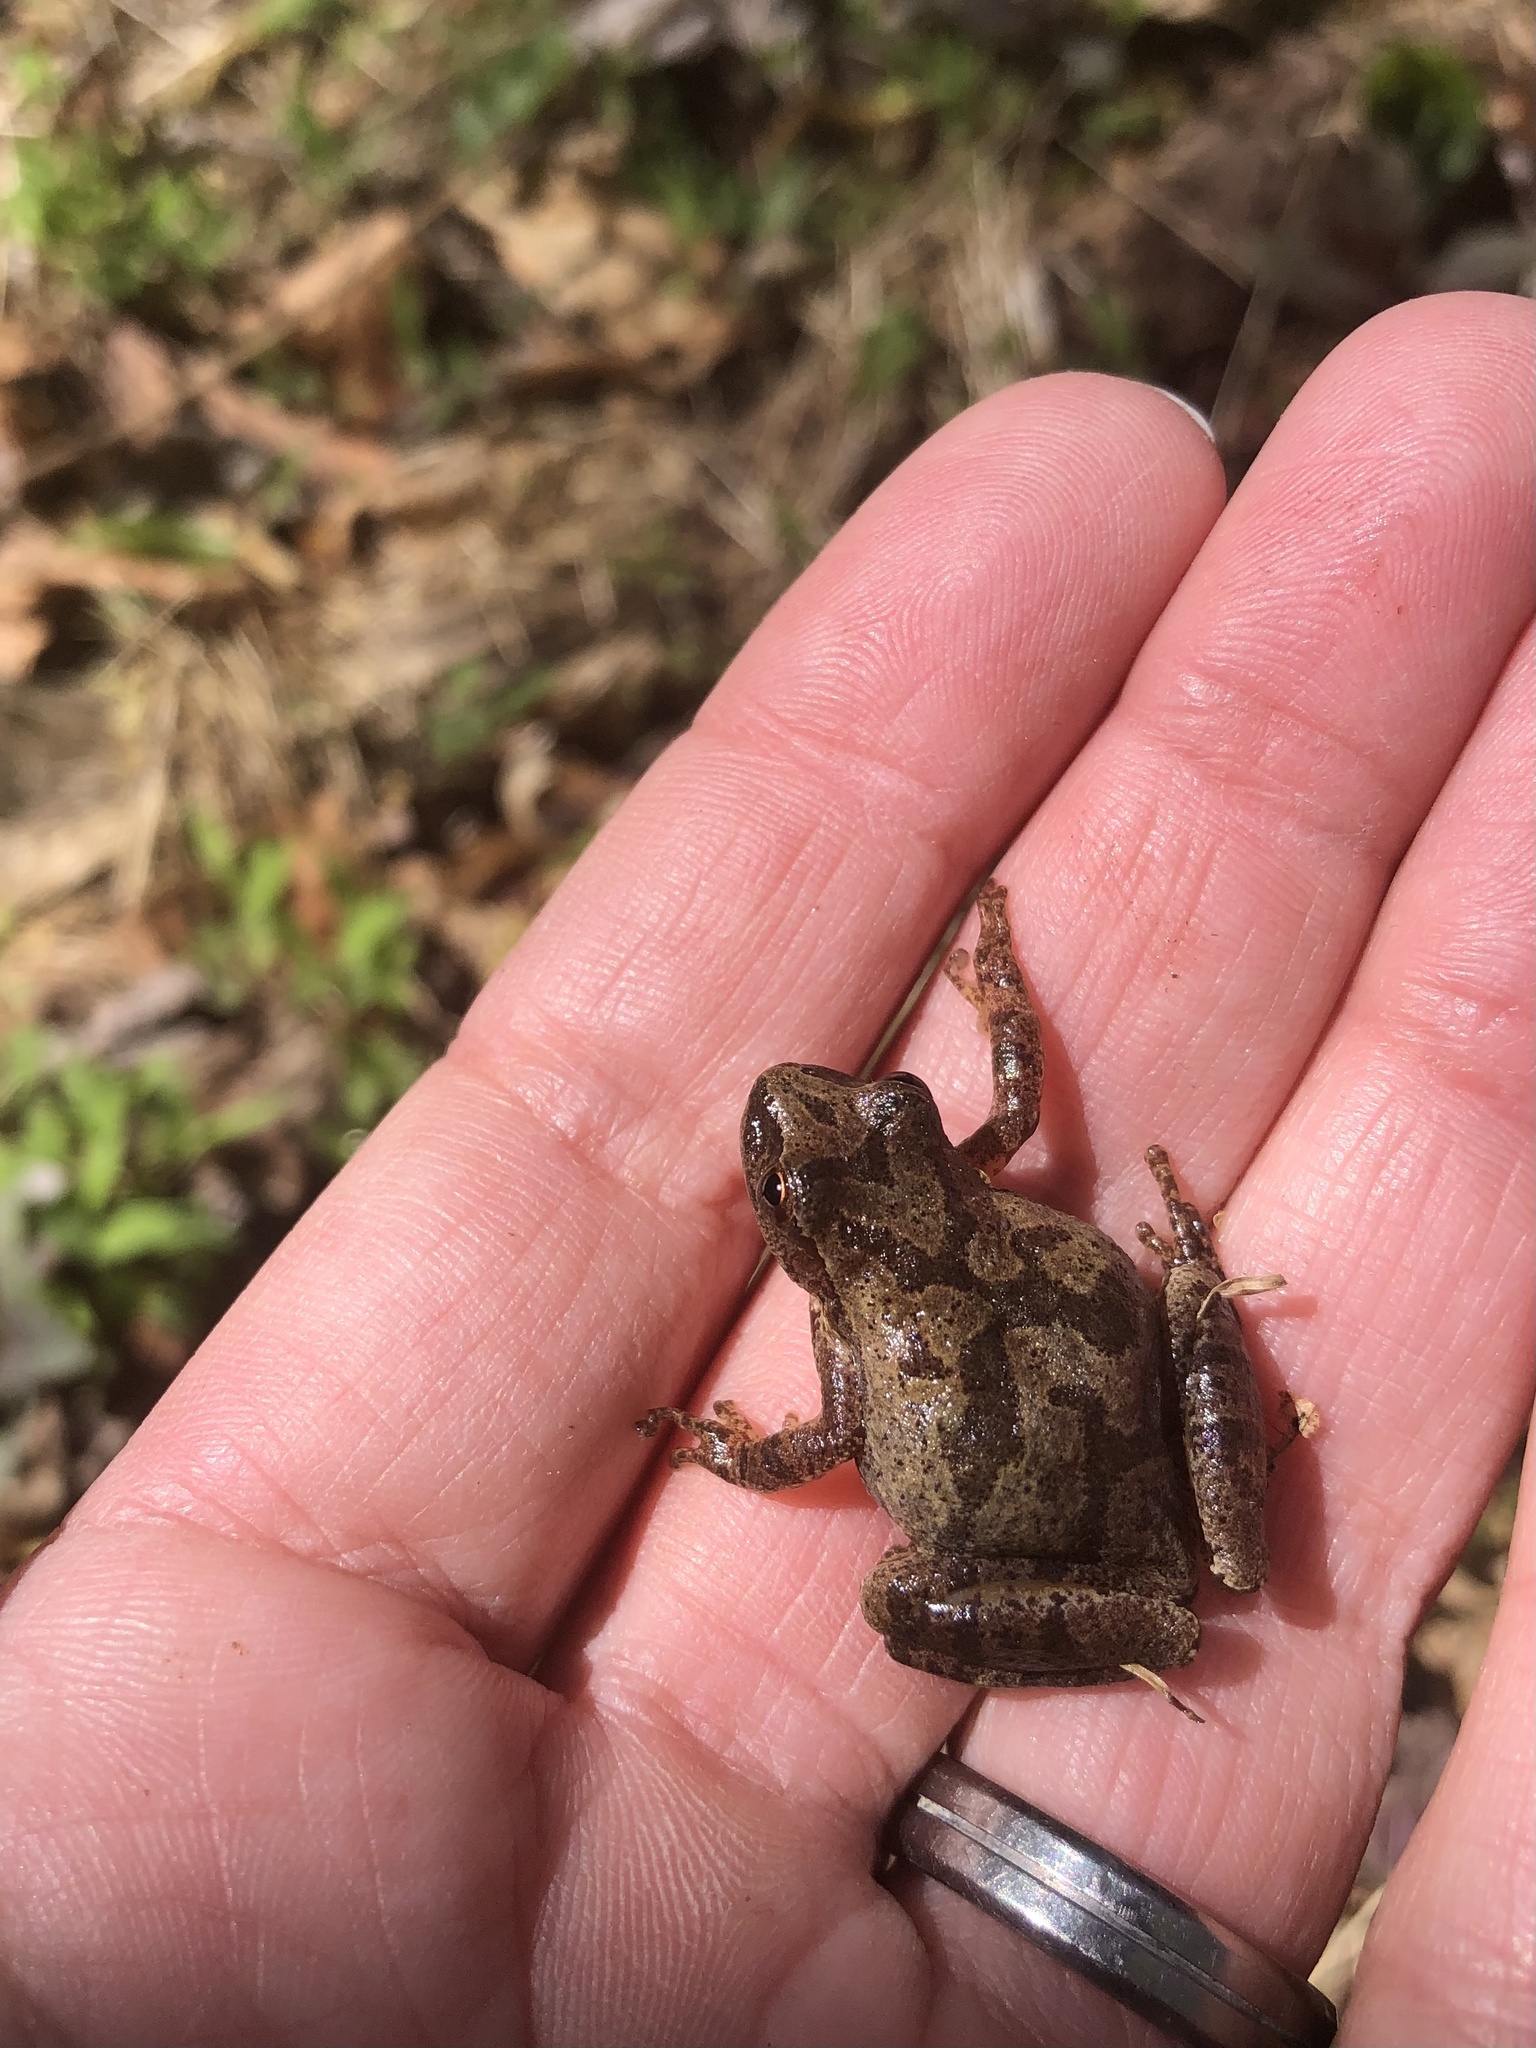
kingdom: Animalia
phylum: Chordata
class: Amphibia
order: Anura
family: Hylidae
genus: Pseudacris
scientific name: Pseudacris crucifer
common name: Spring peeper
